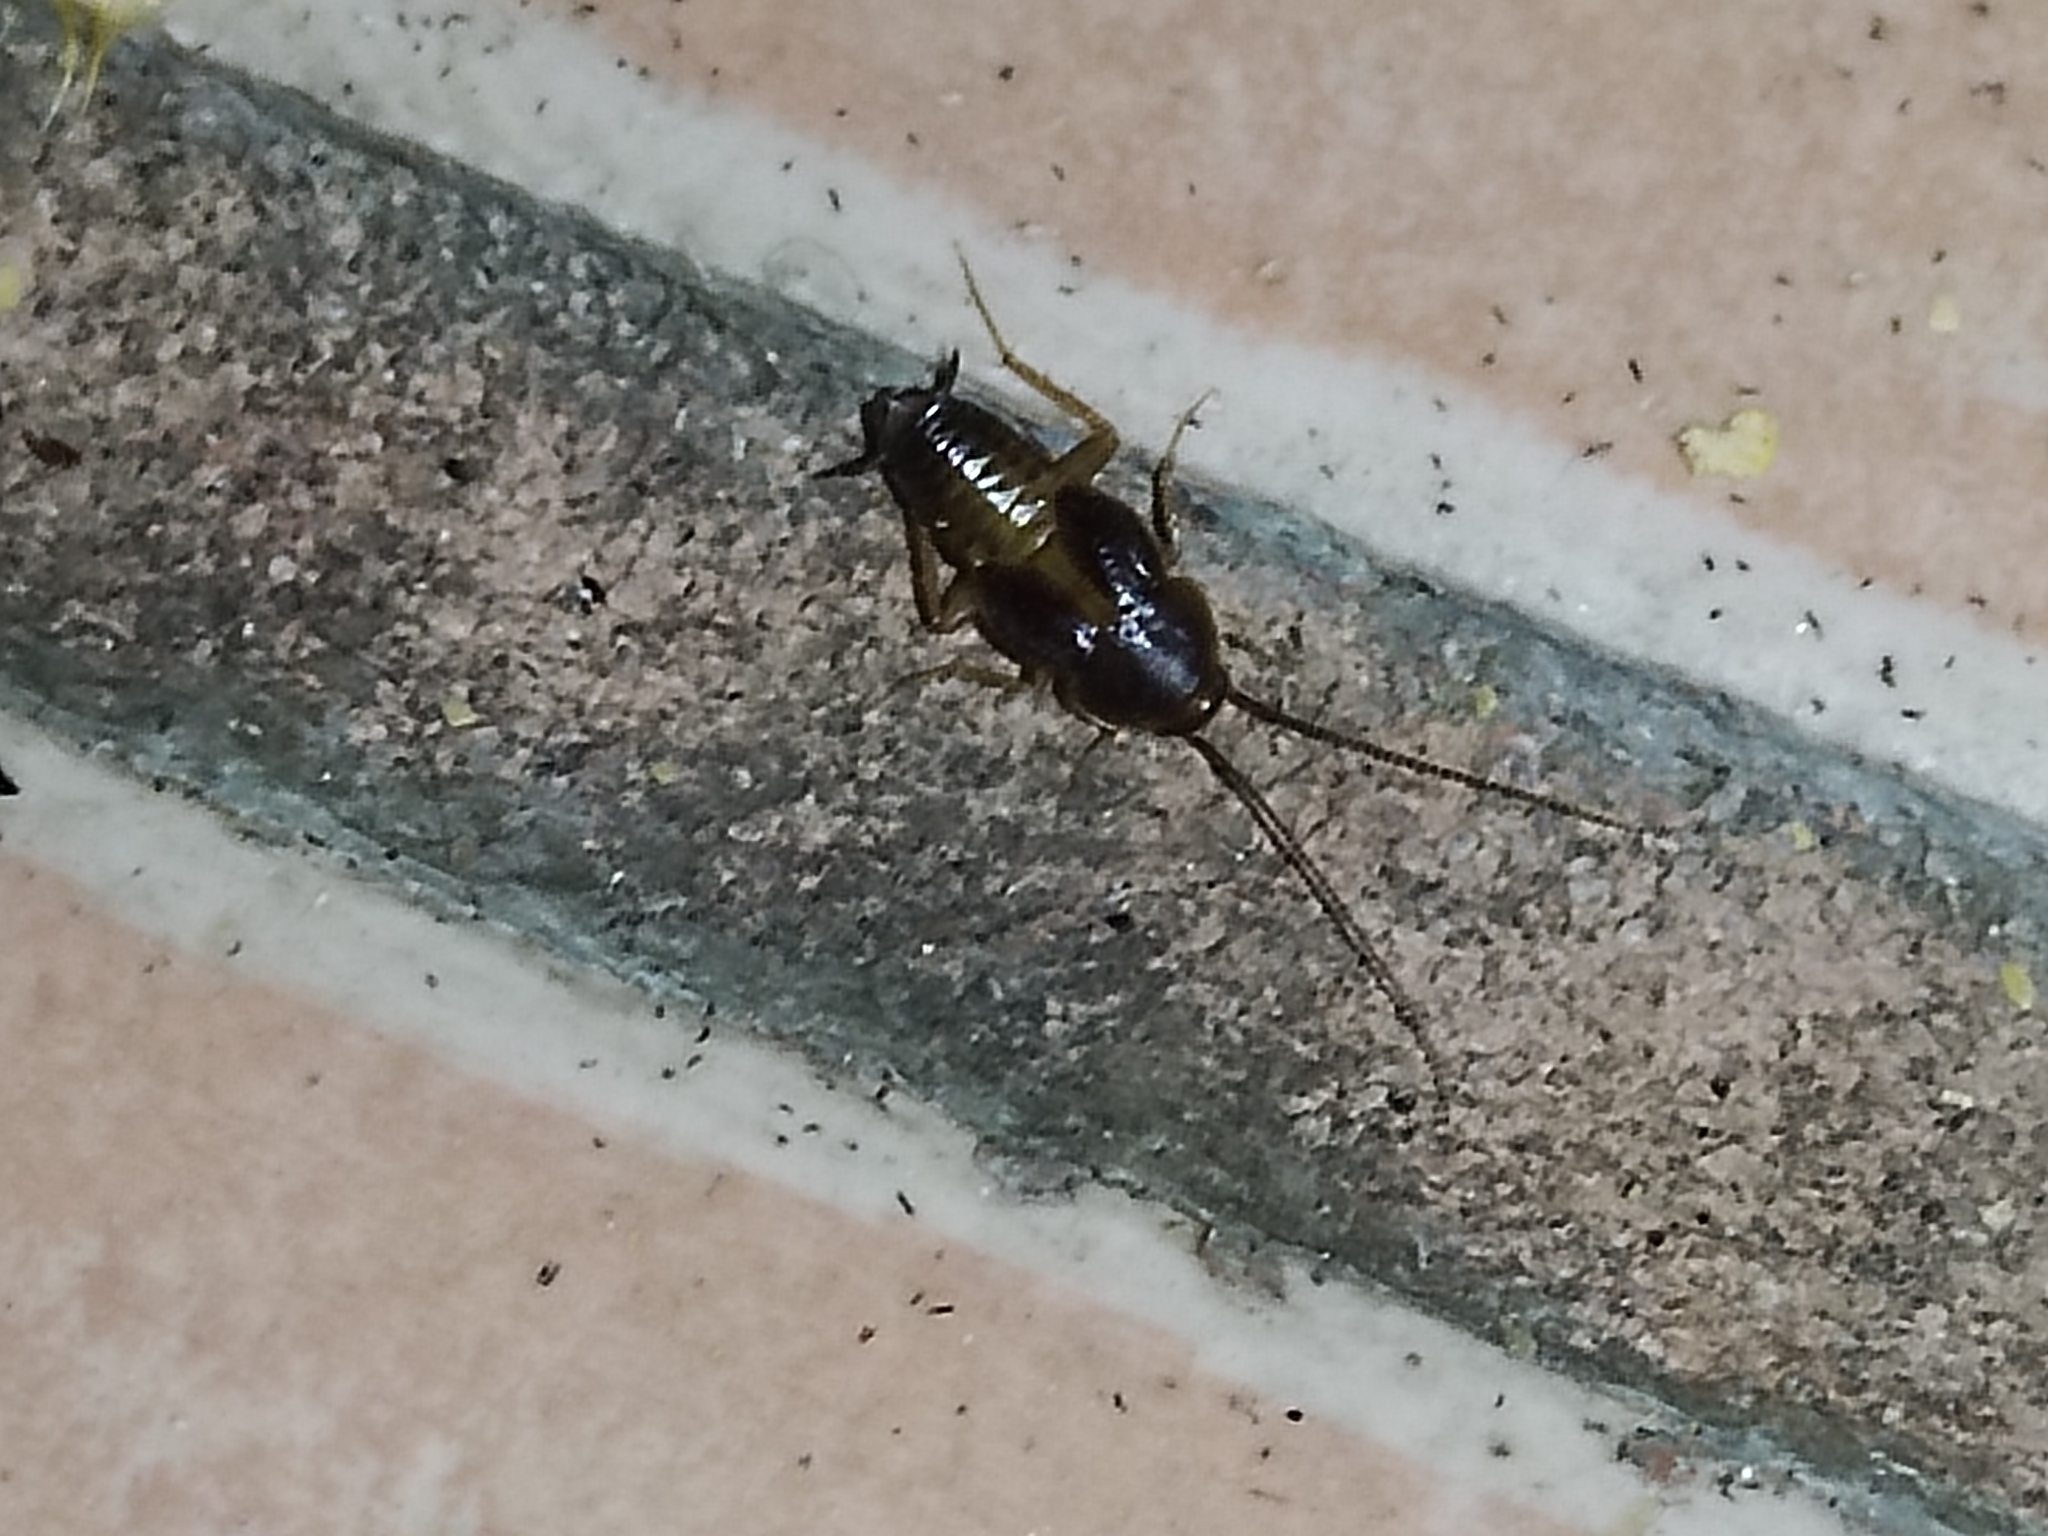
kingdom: Animalia
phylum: Arthropoda
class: Insecta
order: Blattodea
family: Corydiidae
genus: Myrmecoblatta
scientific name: Myrmecoblatta hebardi
